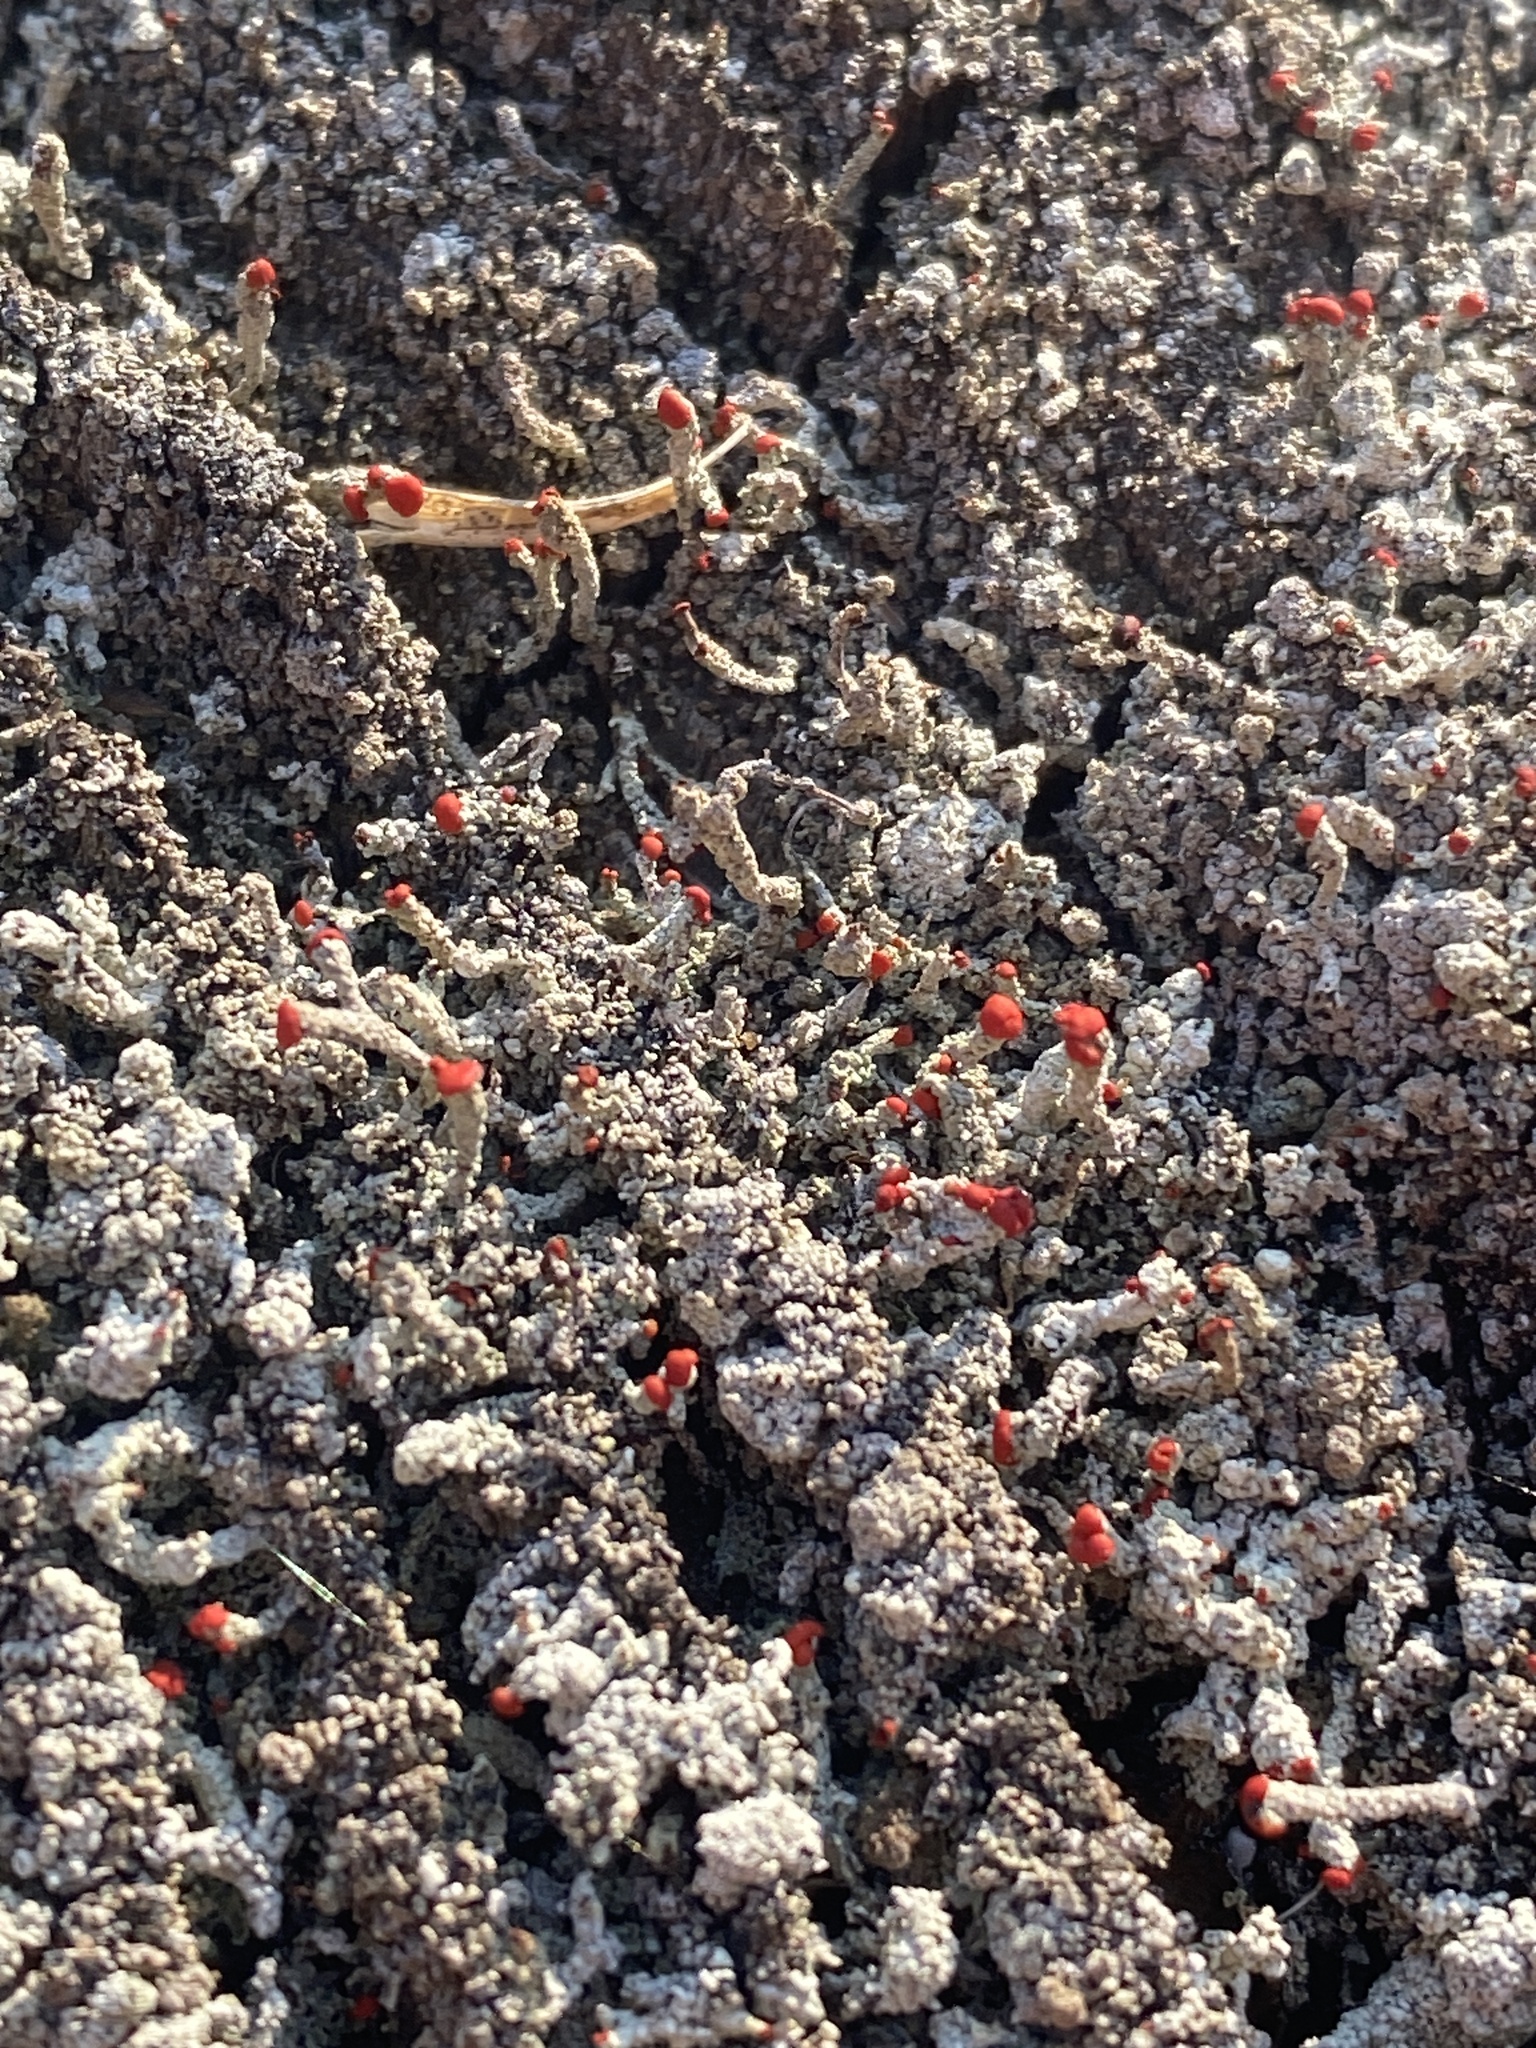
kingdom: Fungi
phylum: Ascomycota
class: Lecanoromycetes
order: Lecanorales
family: Cladoniaceae
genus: Cladonia
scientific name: Cladonia floerkeana
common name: Gritty british soldiers lichen
